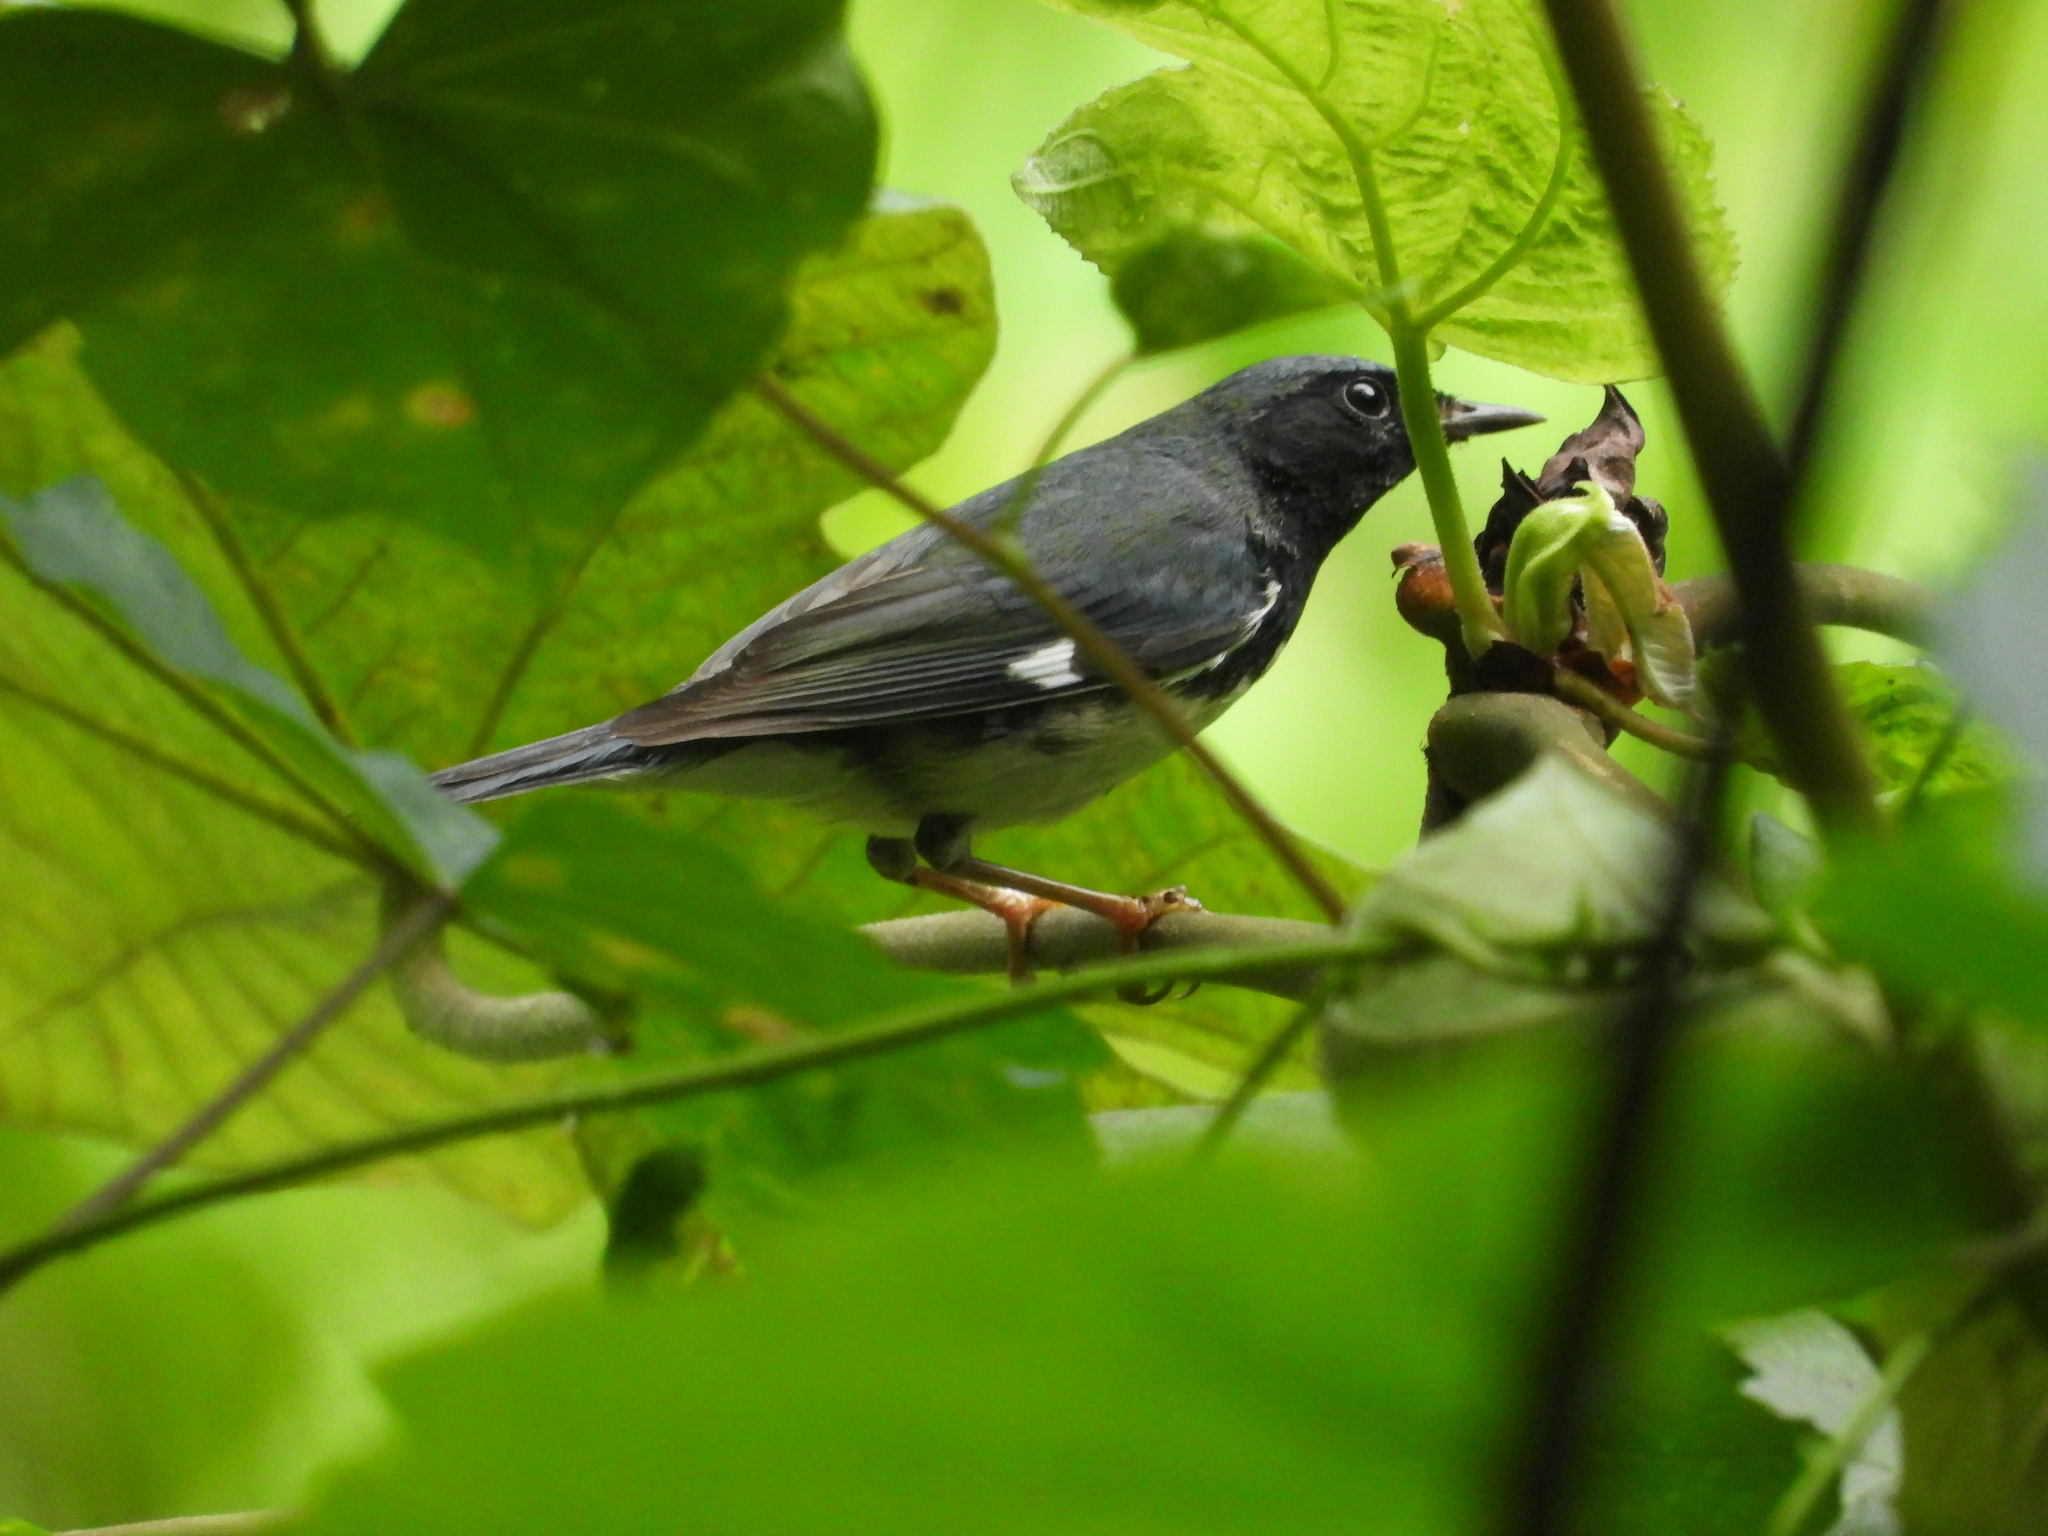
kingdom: Animalia
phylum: Chordata
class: Aves
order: Passeriformes
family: Parulidae
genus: Setophaga
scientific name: Setophaga caerulescens
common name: Black-throated blue warbler
